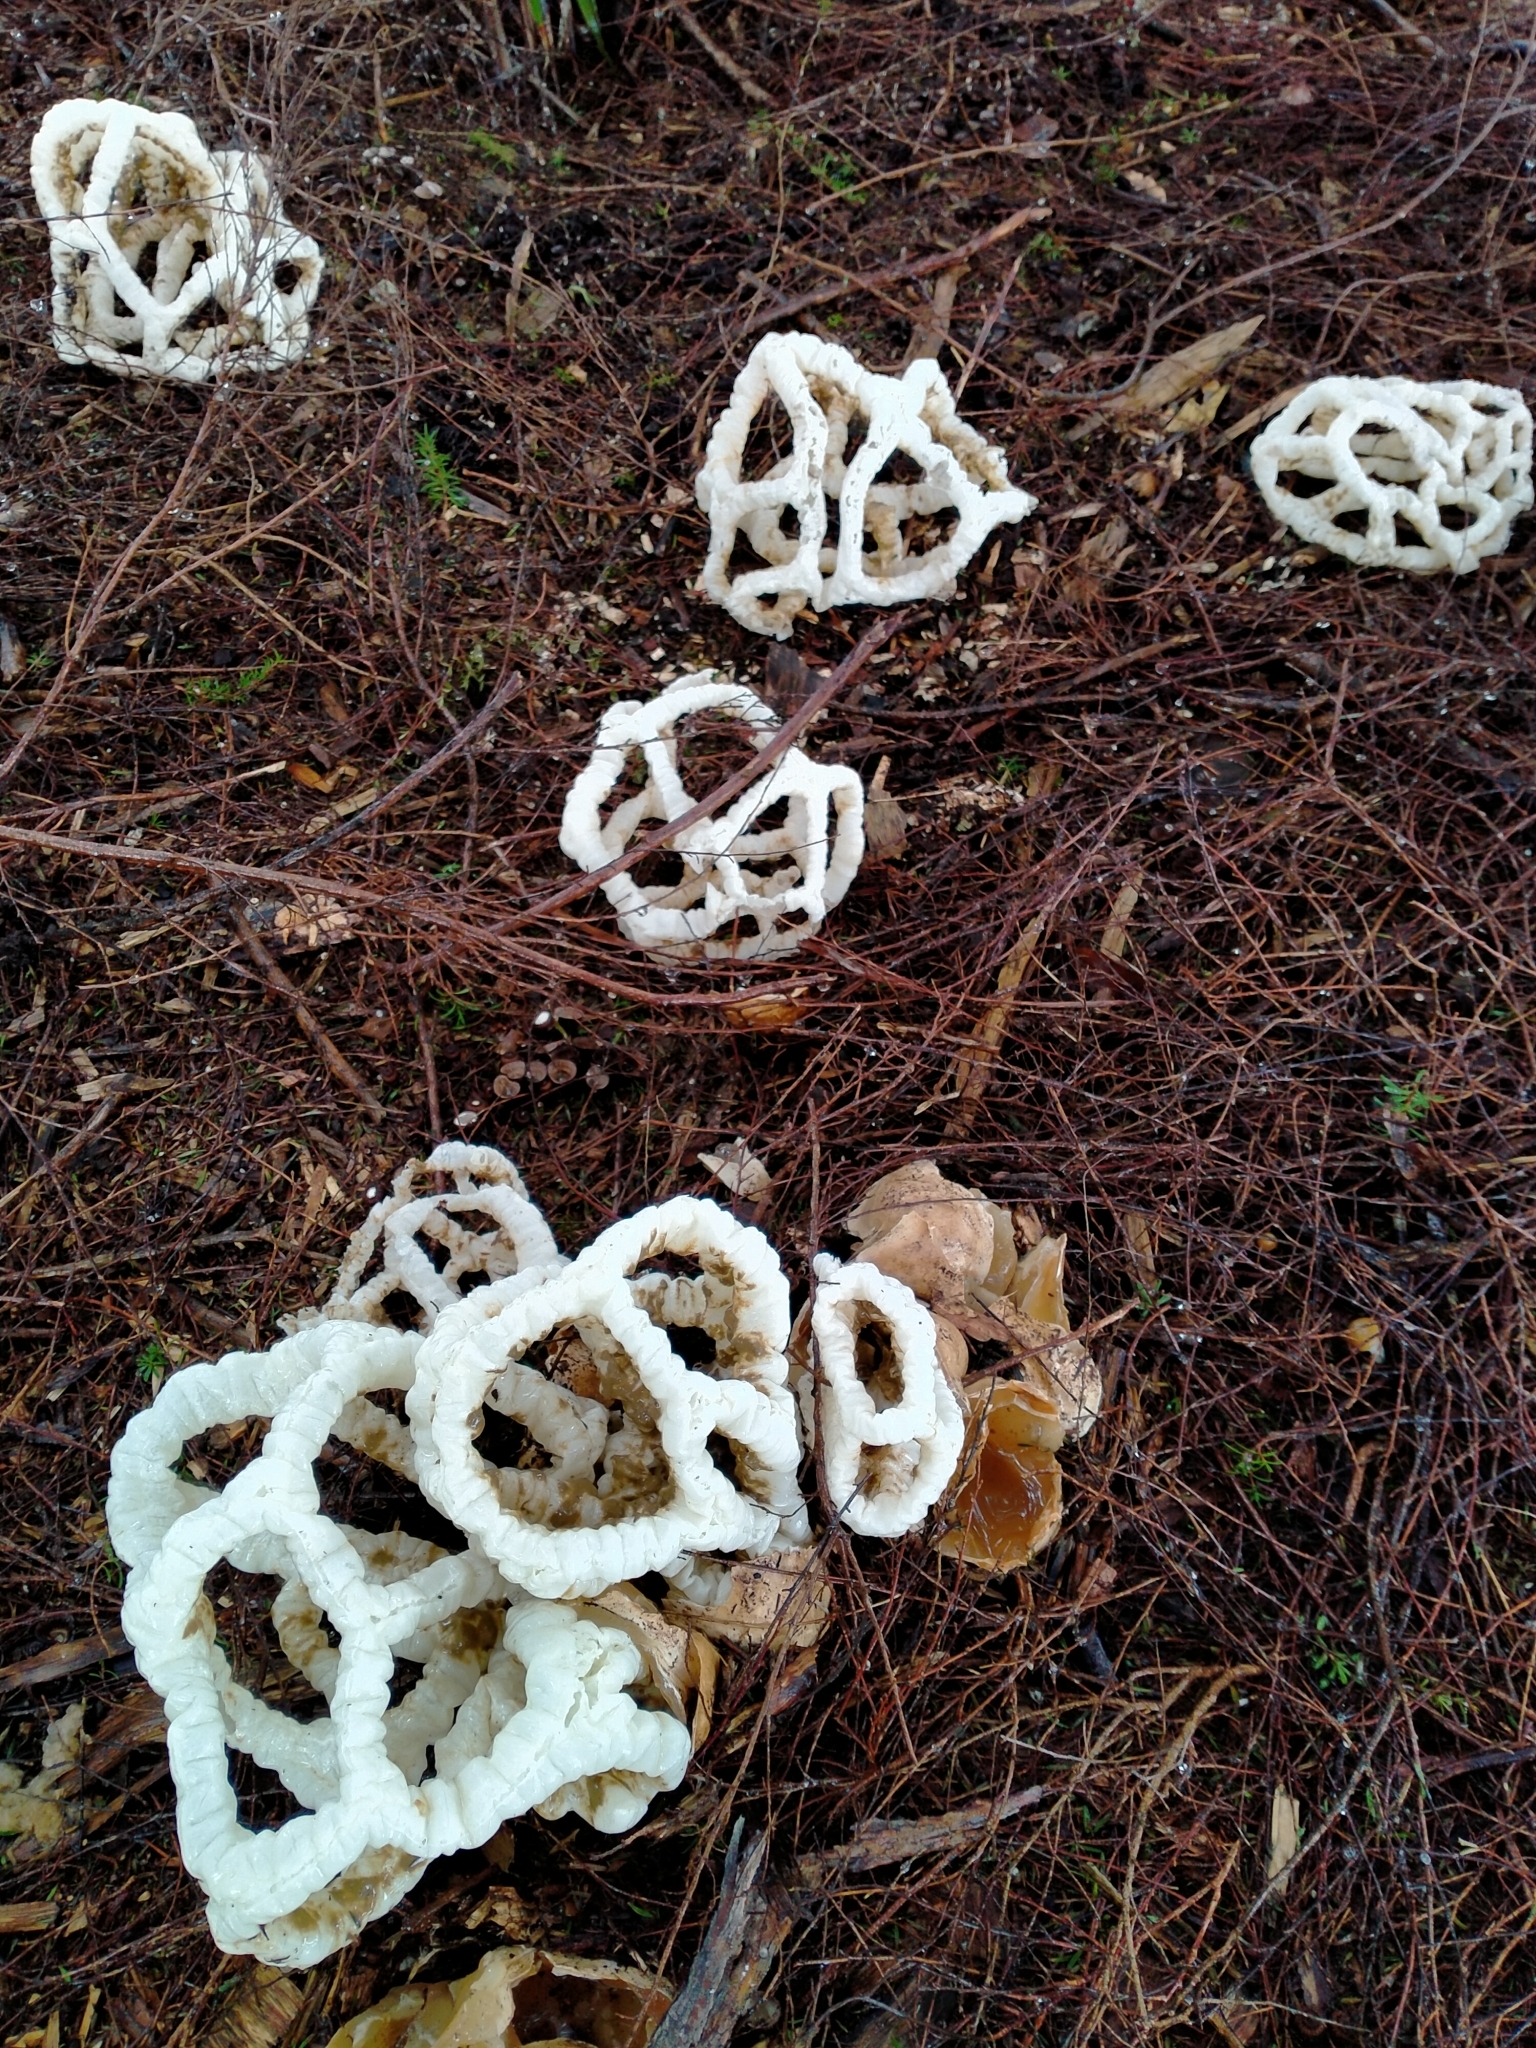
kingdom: Fungi
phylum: Basidiomycota
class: Agaricomycetes
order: Phallales
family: Phallaceae
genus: Ileodictyon
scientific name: Ileodictyon cibarium
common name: Basket fungus
